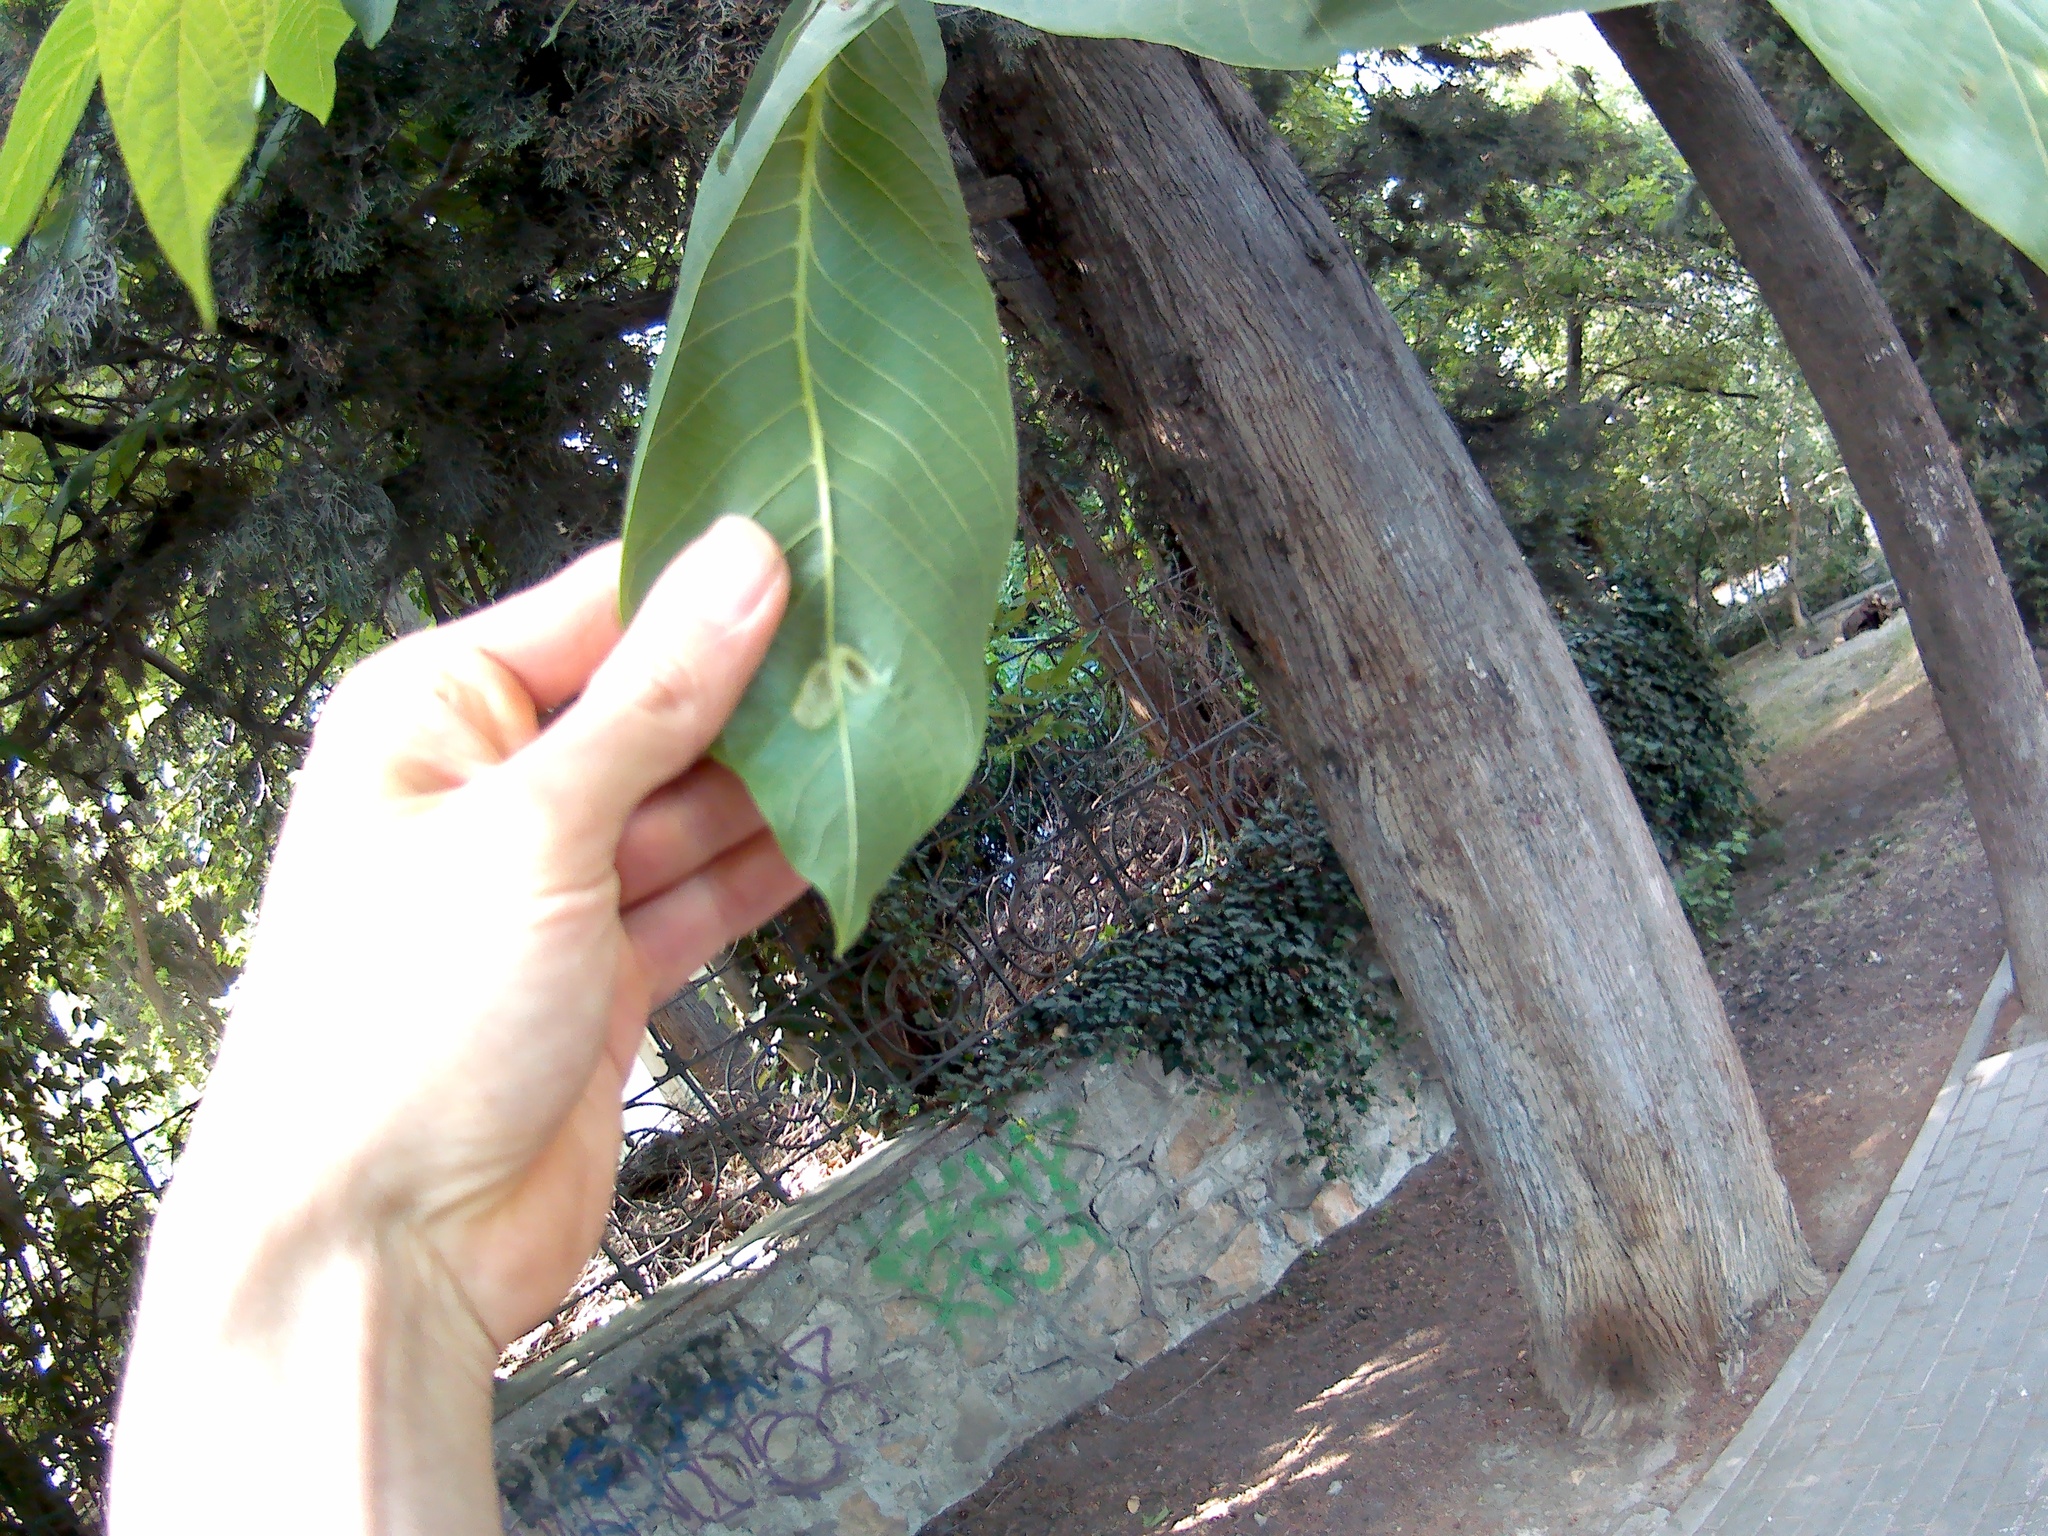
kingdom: Animalia
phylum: Arthropoda
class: Arachnida
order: Trombidiformes
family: Eriophyidae
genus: Aceria
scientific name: Aceria erinea
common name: Persian walnut erineum mite
